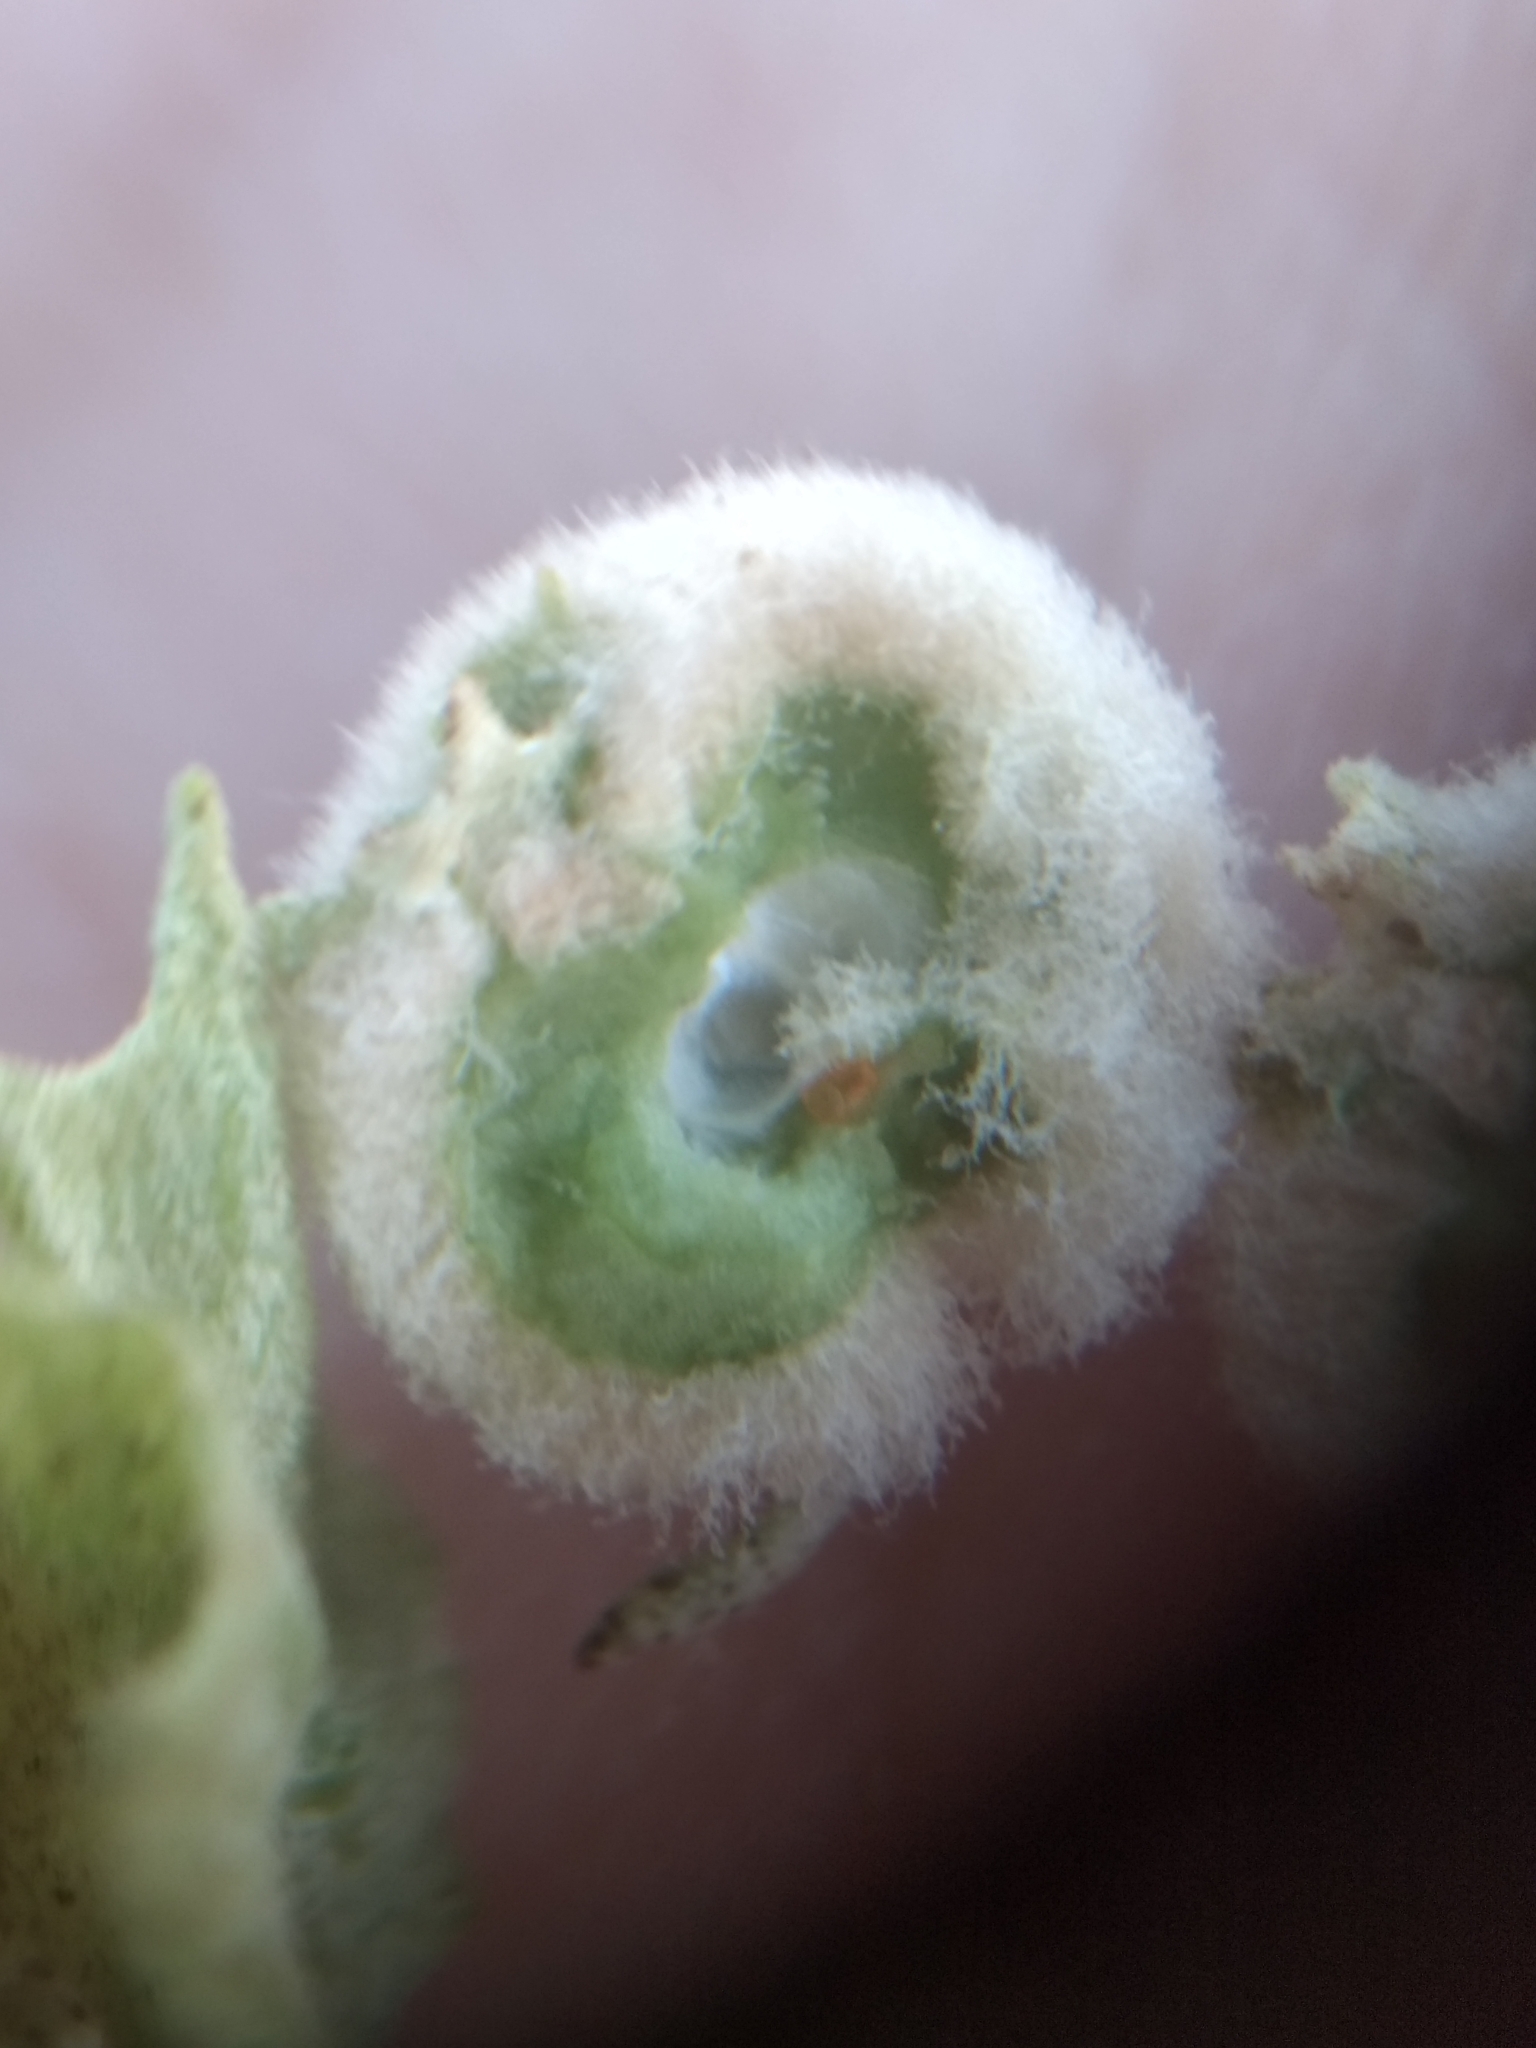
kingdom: Animalia
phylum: Arthropoda
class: Insecta
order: Diptera
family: Cecidomyiidae
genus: Asphondylia
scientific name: Asphondylia neomexicana
